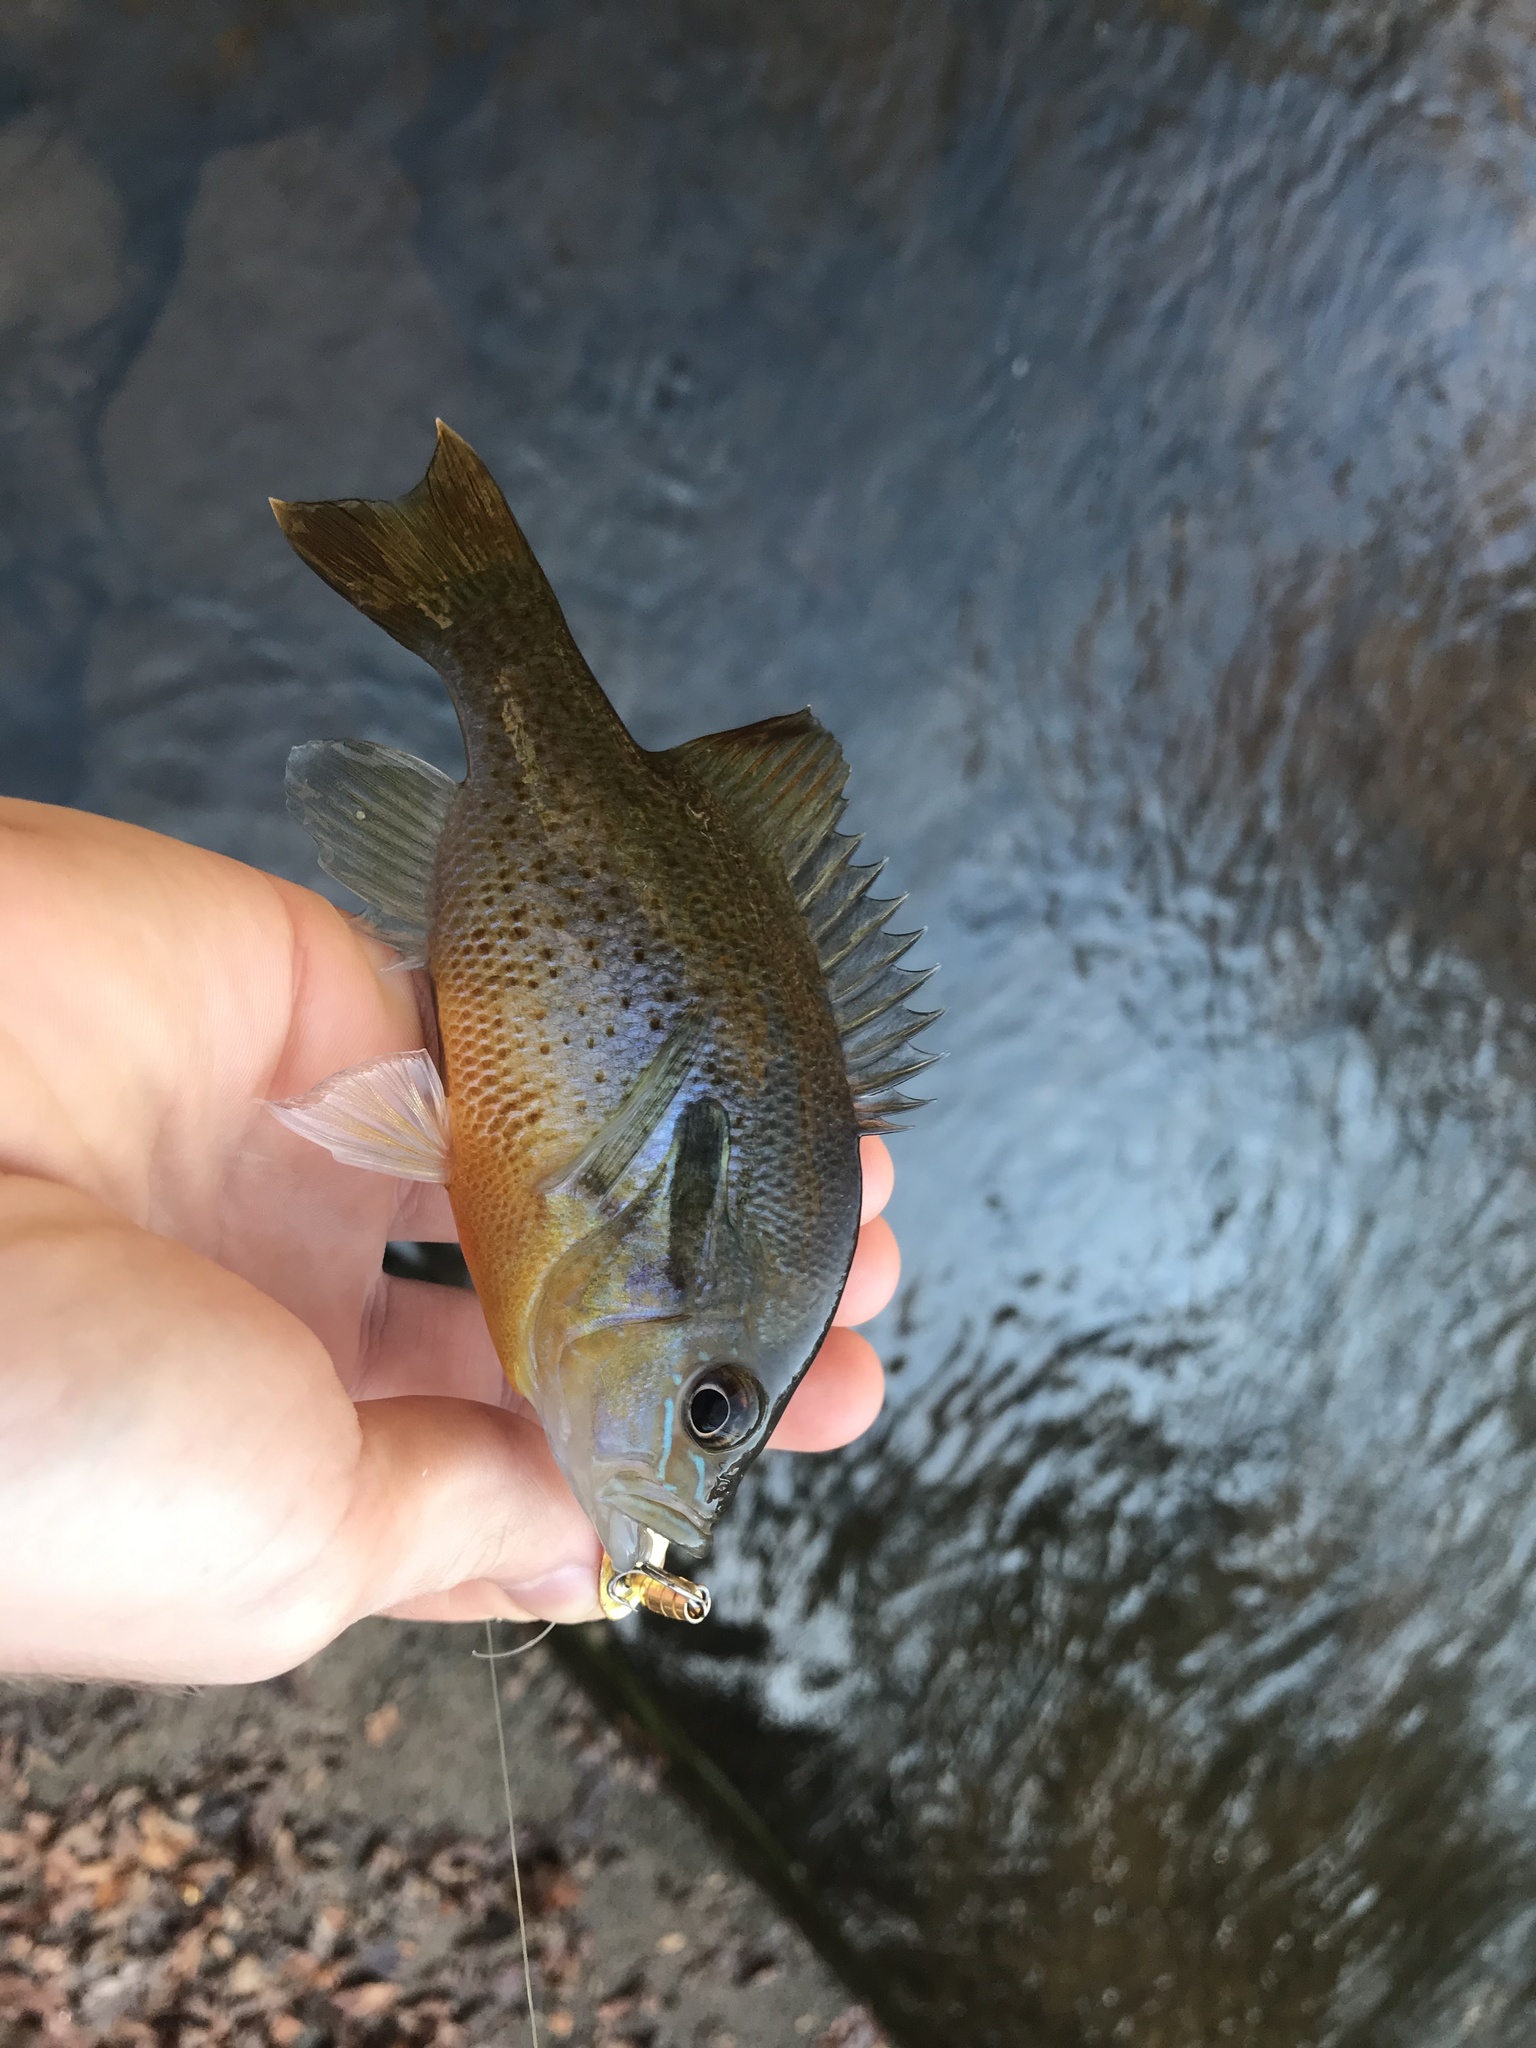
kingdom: Animalia
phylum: Chordata
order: Perciformes
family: Centrarchidae
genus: Lepomis
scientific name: Lepomis auritus
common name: Redbreast sunfish
